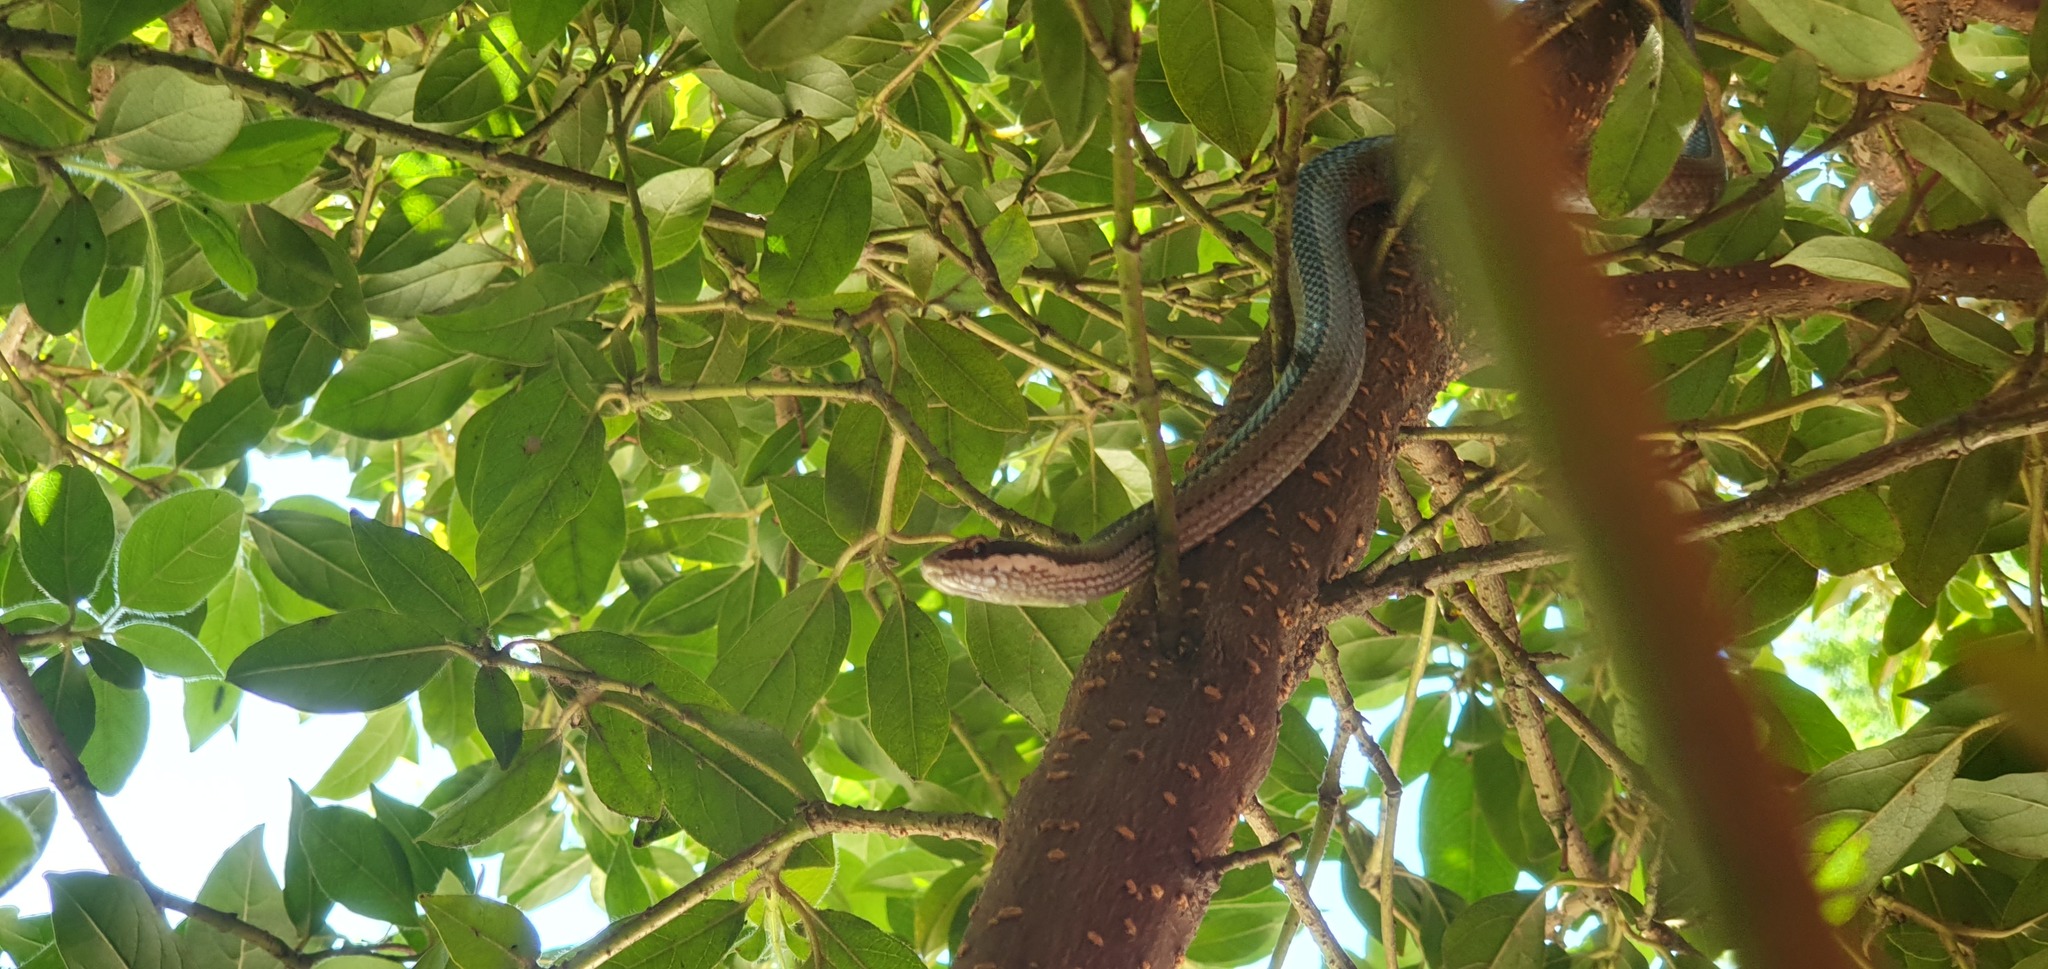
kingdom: Animalia
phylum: Chordata
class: Squamata
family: Colubridae
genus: Philodryas
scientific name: Philodryas chamissonis
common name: Chilean green racer
